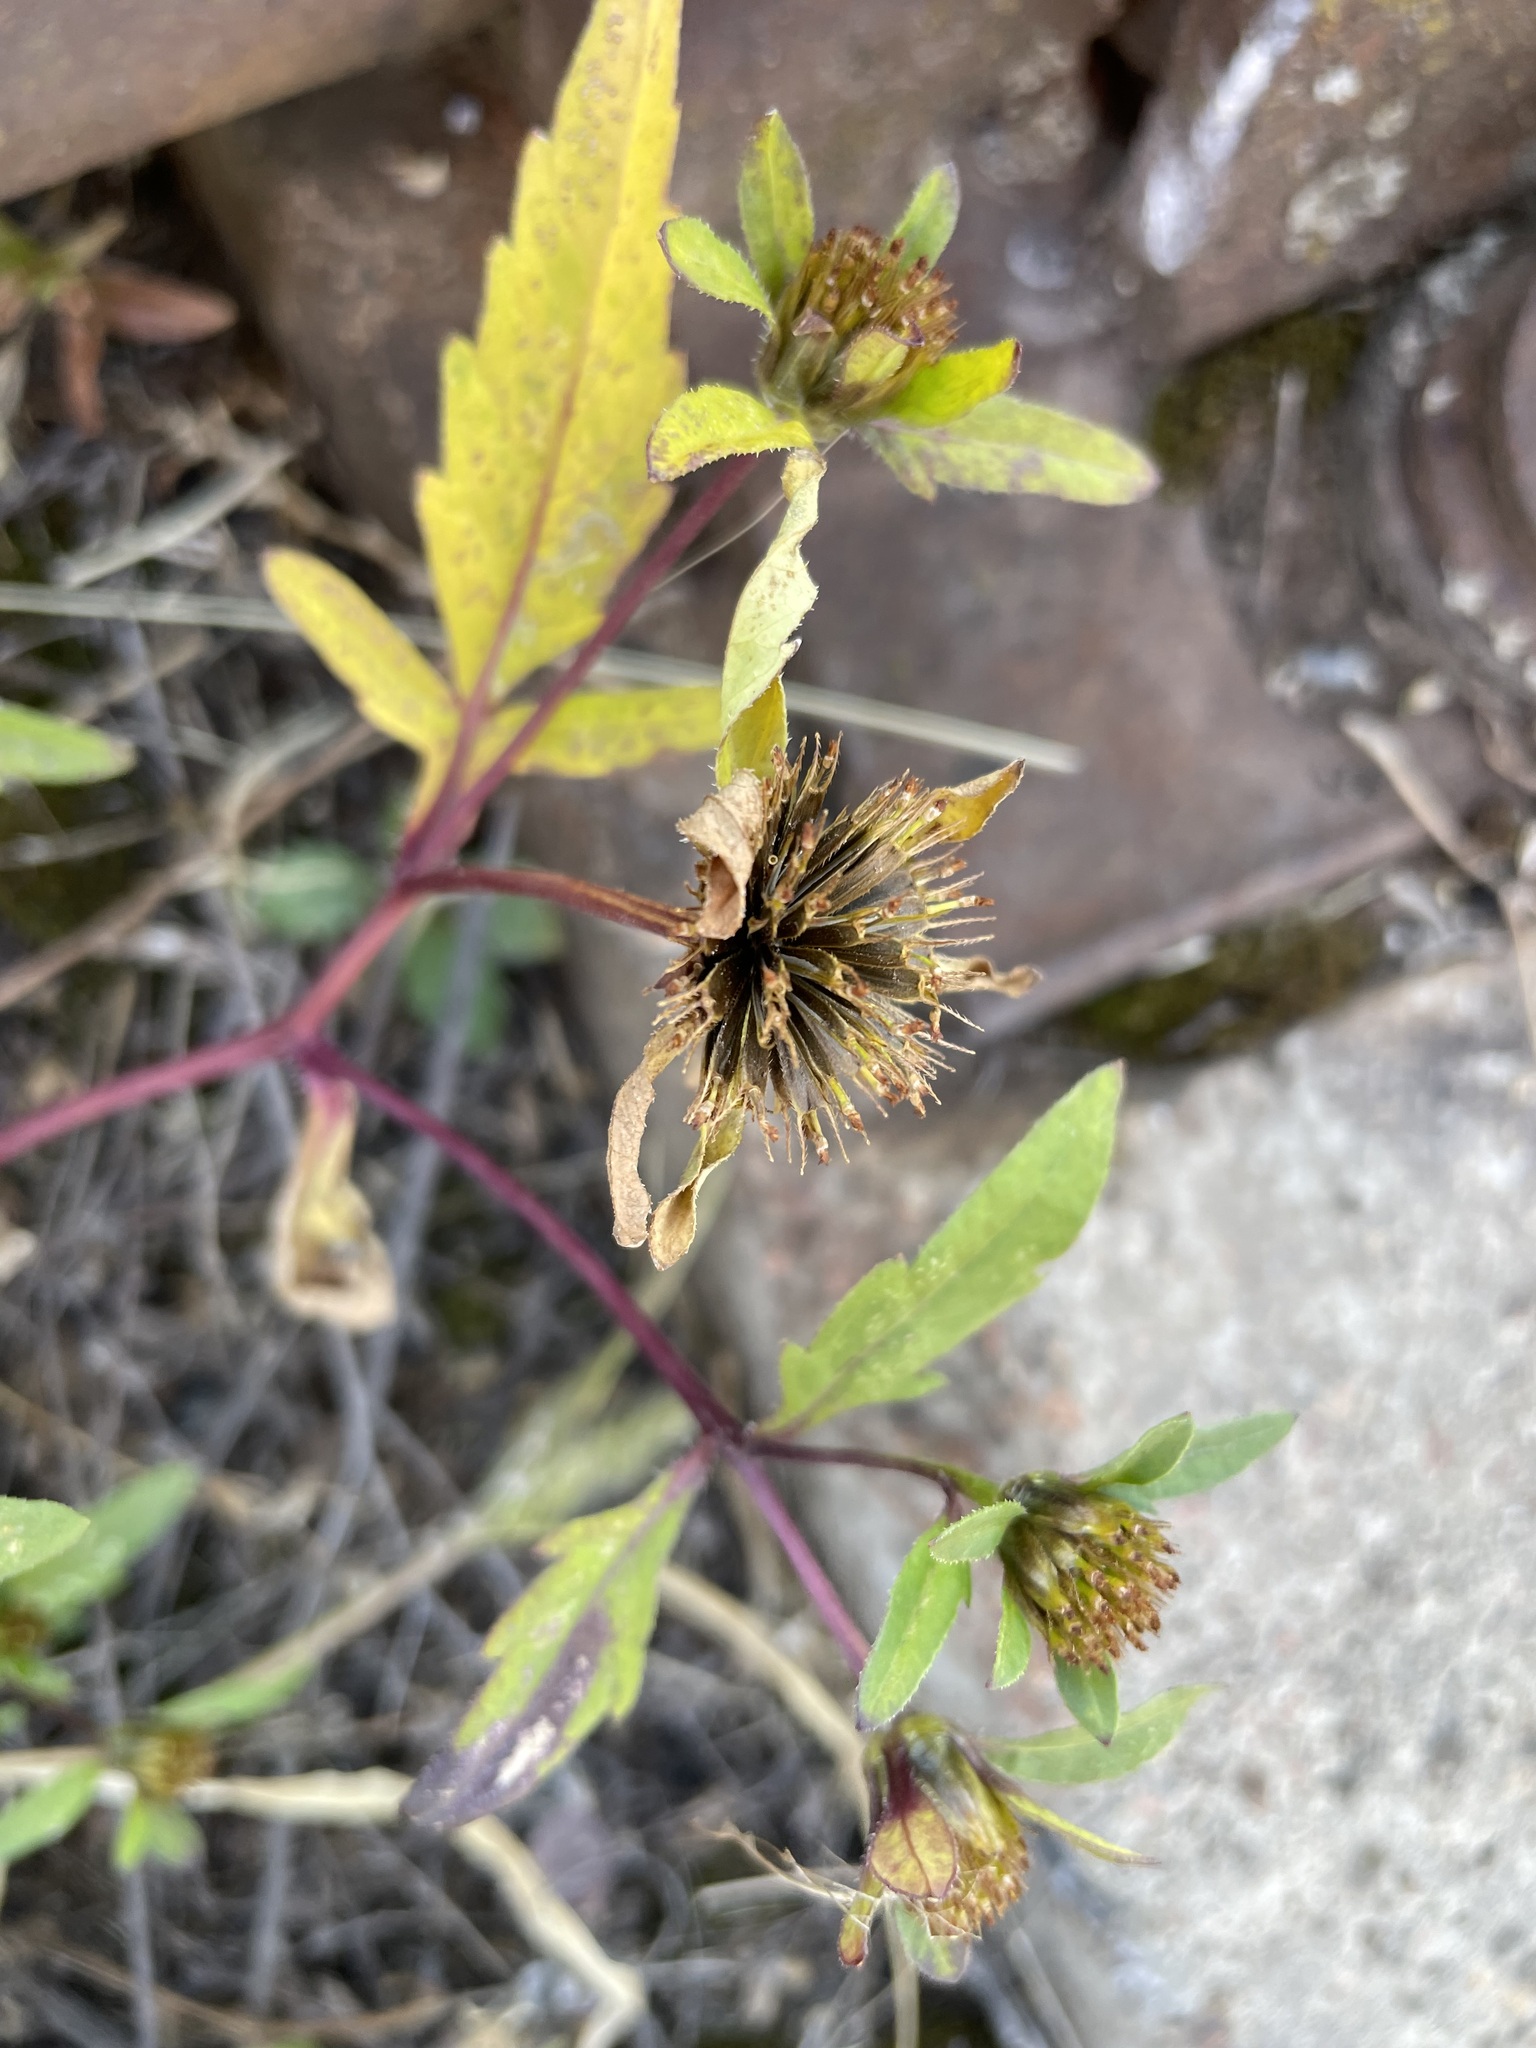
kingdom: Plantae
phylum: Tracheophyta
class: Magnoliopsida
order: Asterales
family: Asteraceae
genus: Bidens
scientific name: Bidens tripartita
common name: Trifid bur-marigold
